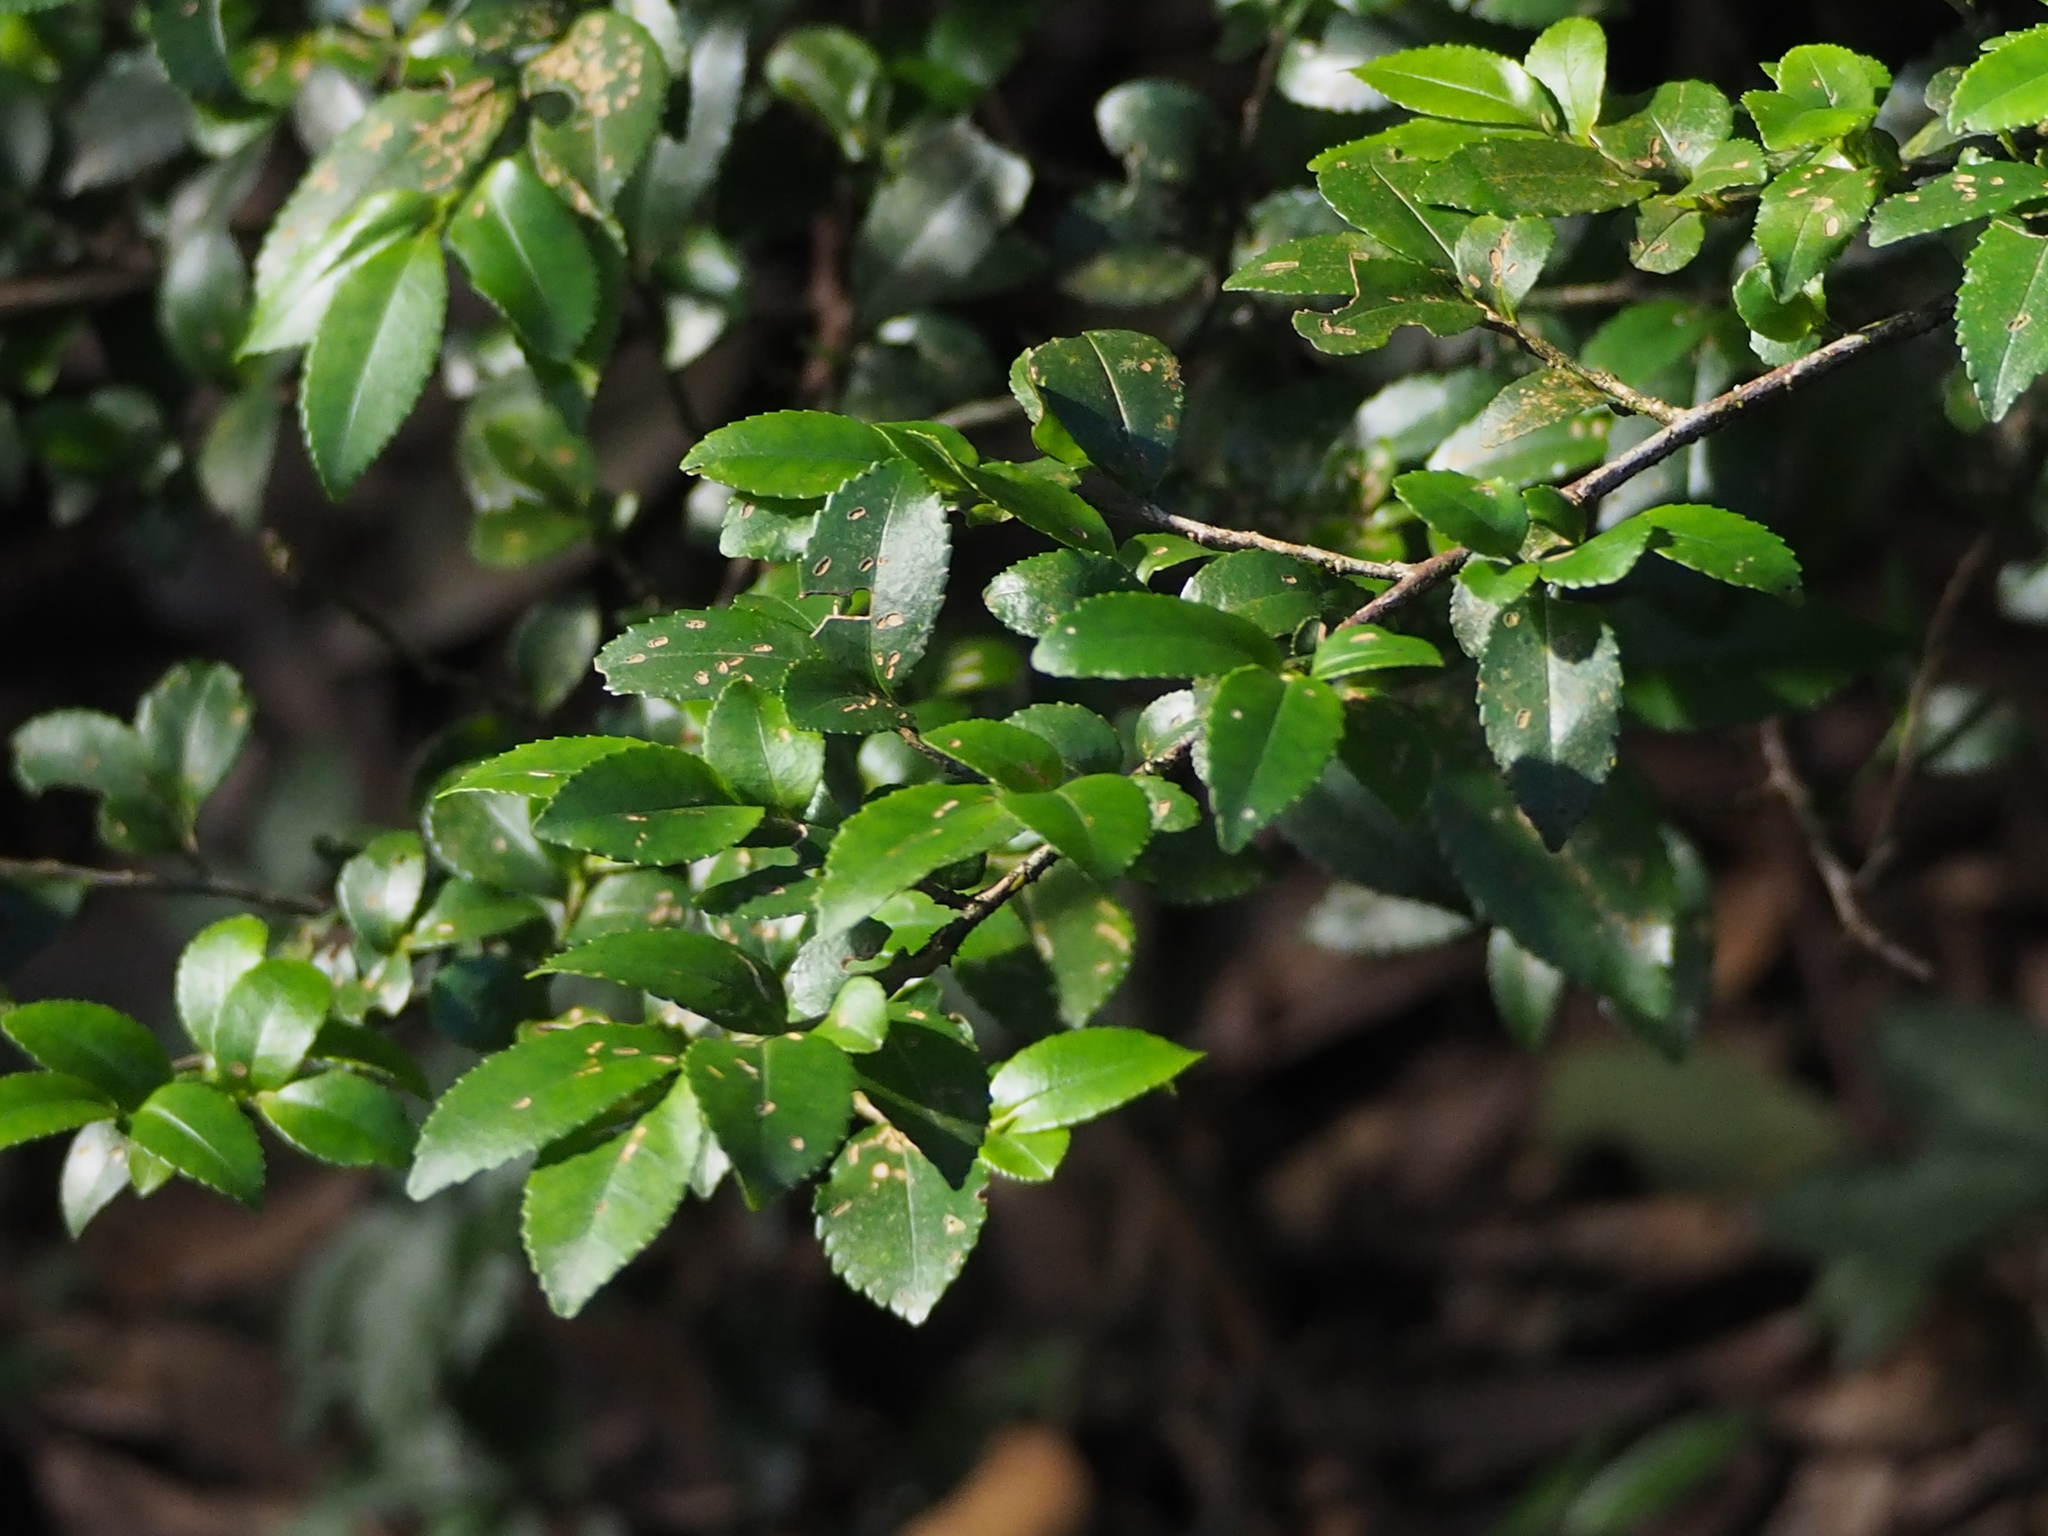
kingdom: Plantae
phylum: Tracheophyta
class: Magnoliopsida
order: Ericales
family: Pentaphylacaceae
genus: Eurya
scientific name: Eurya crenatifolia
